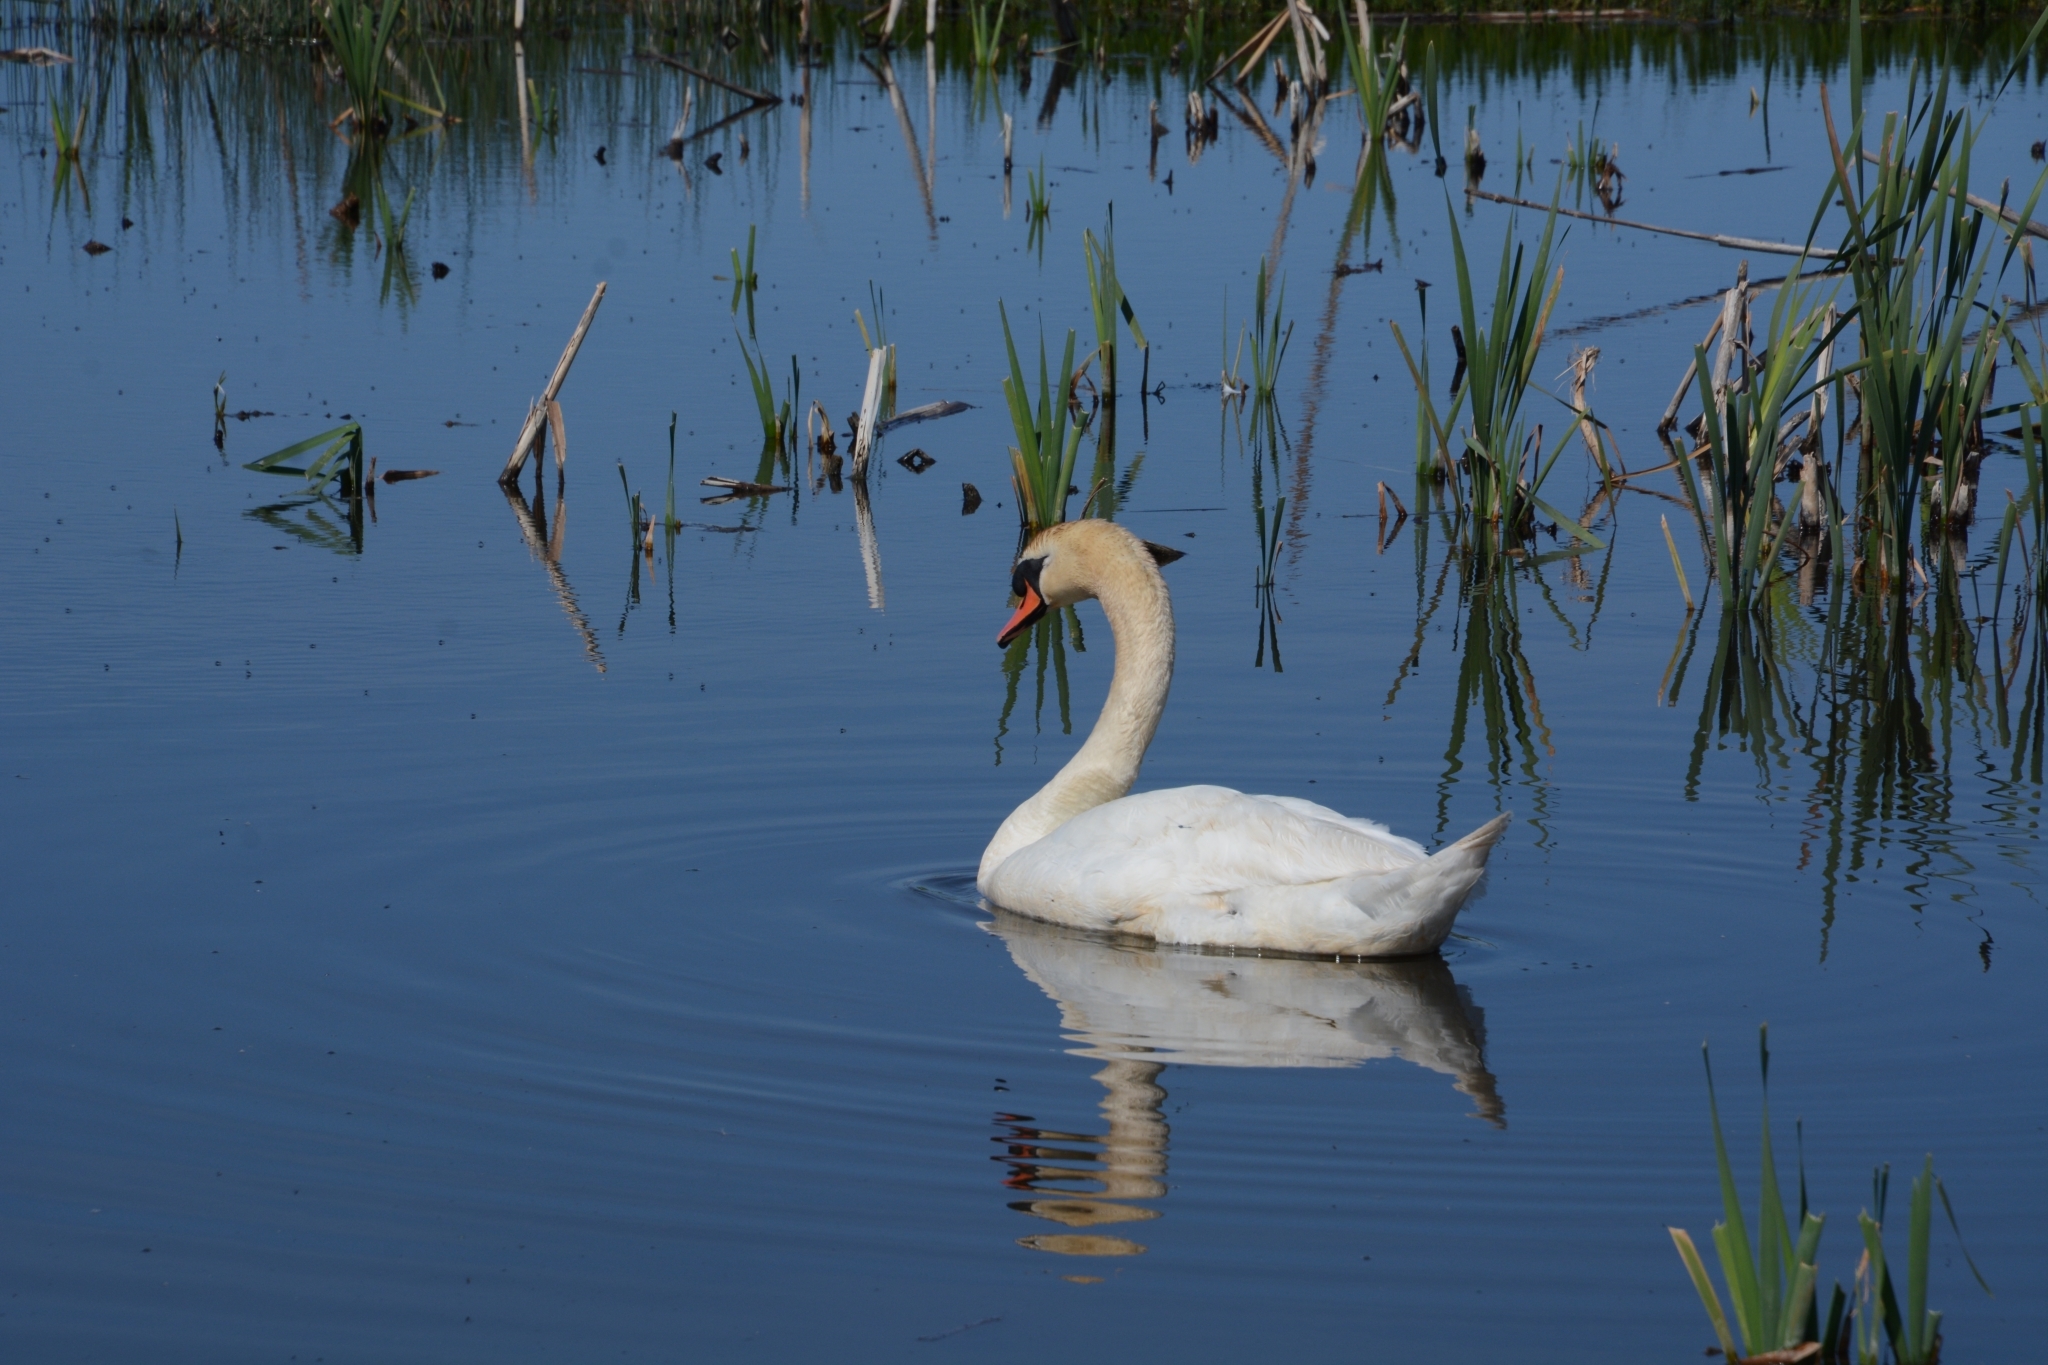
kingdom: Animalia
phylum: Chordata
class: Aves
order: Anseriformes
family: Anatidae
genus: Cygnus
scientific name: Cygnus olor
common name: Mute swan
